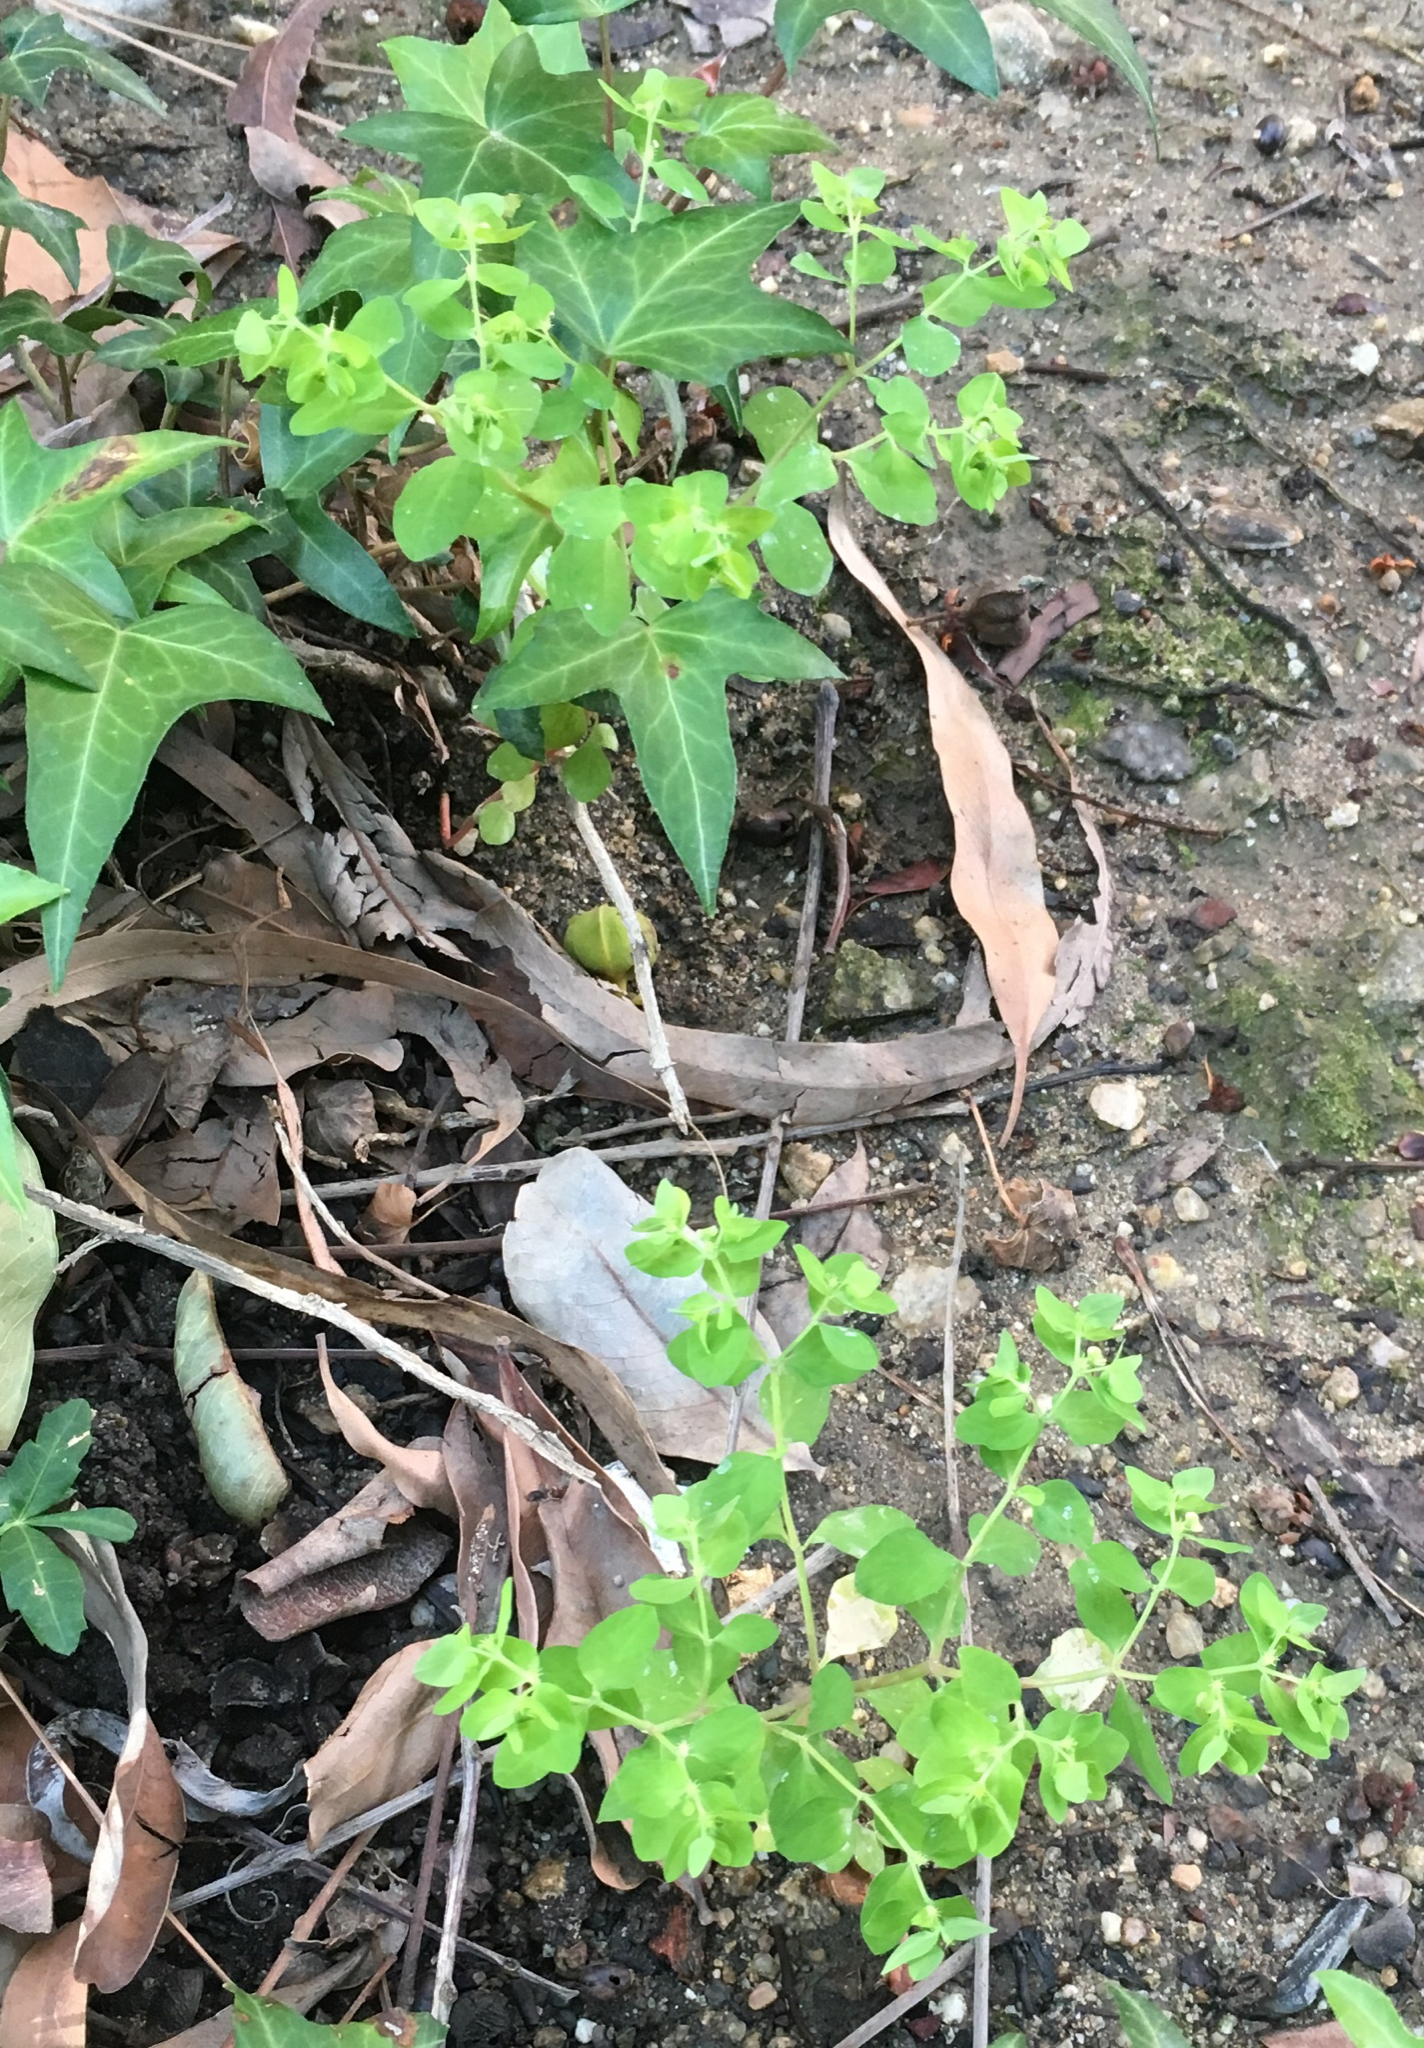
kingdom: Plantae
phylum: Tracheophyta
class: Magnoliopsida
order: Malpighiales
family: Euphorbiaceae
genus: Euphorbia
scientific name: Euphorbia peplus
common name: Petty spurge
